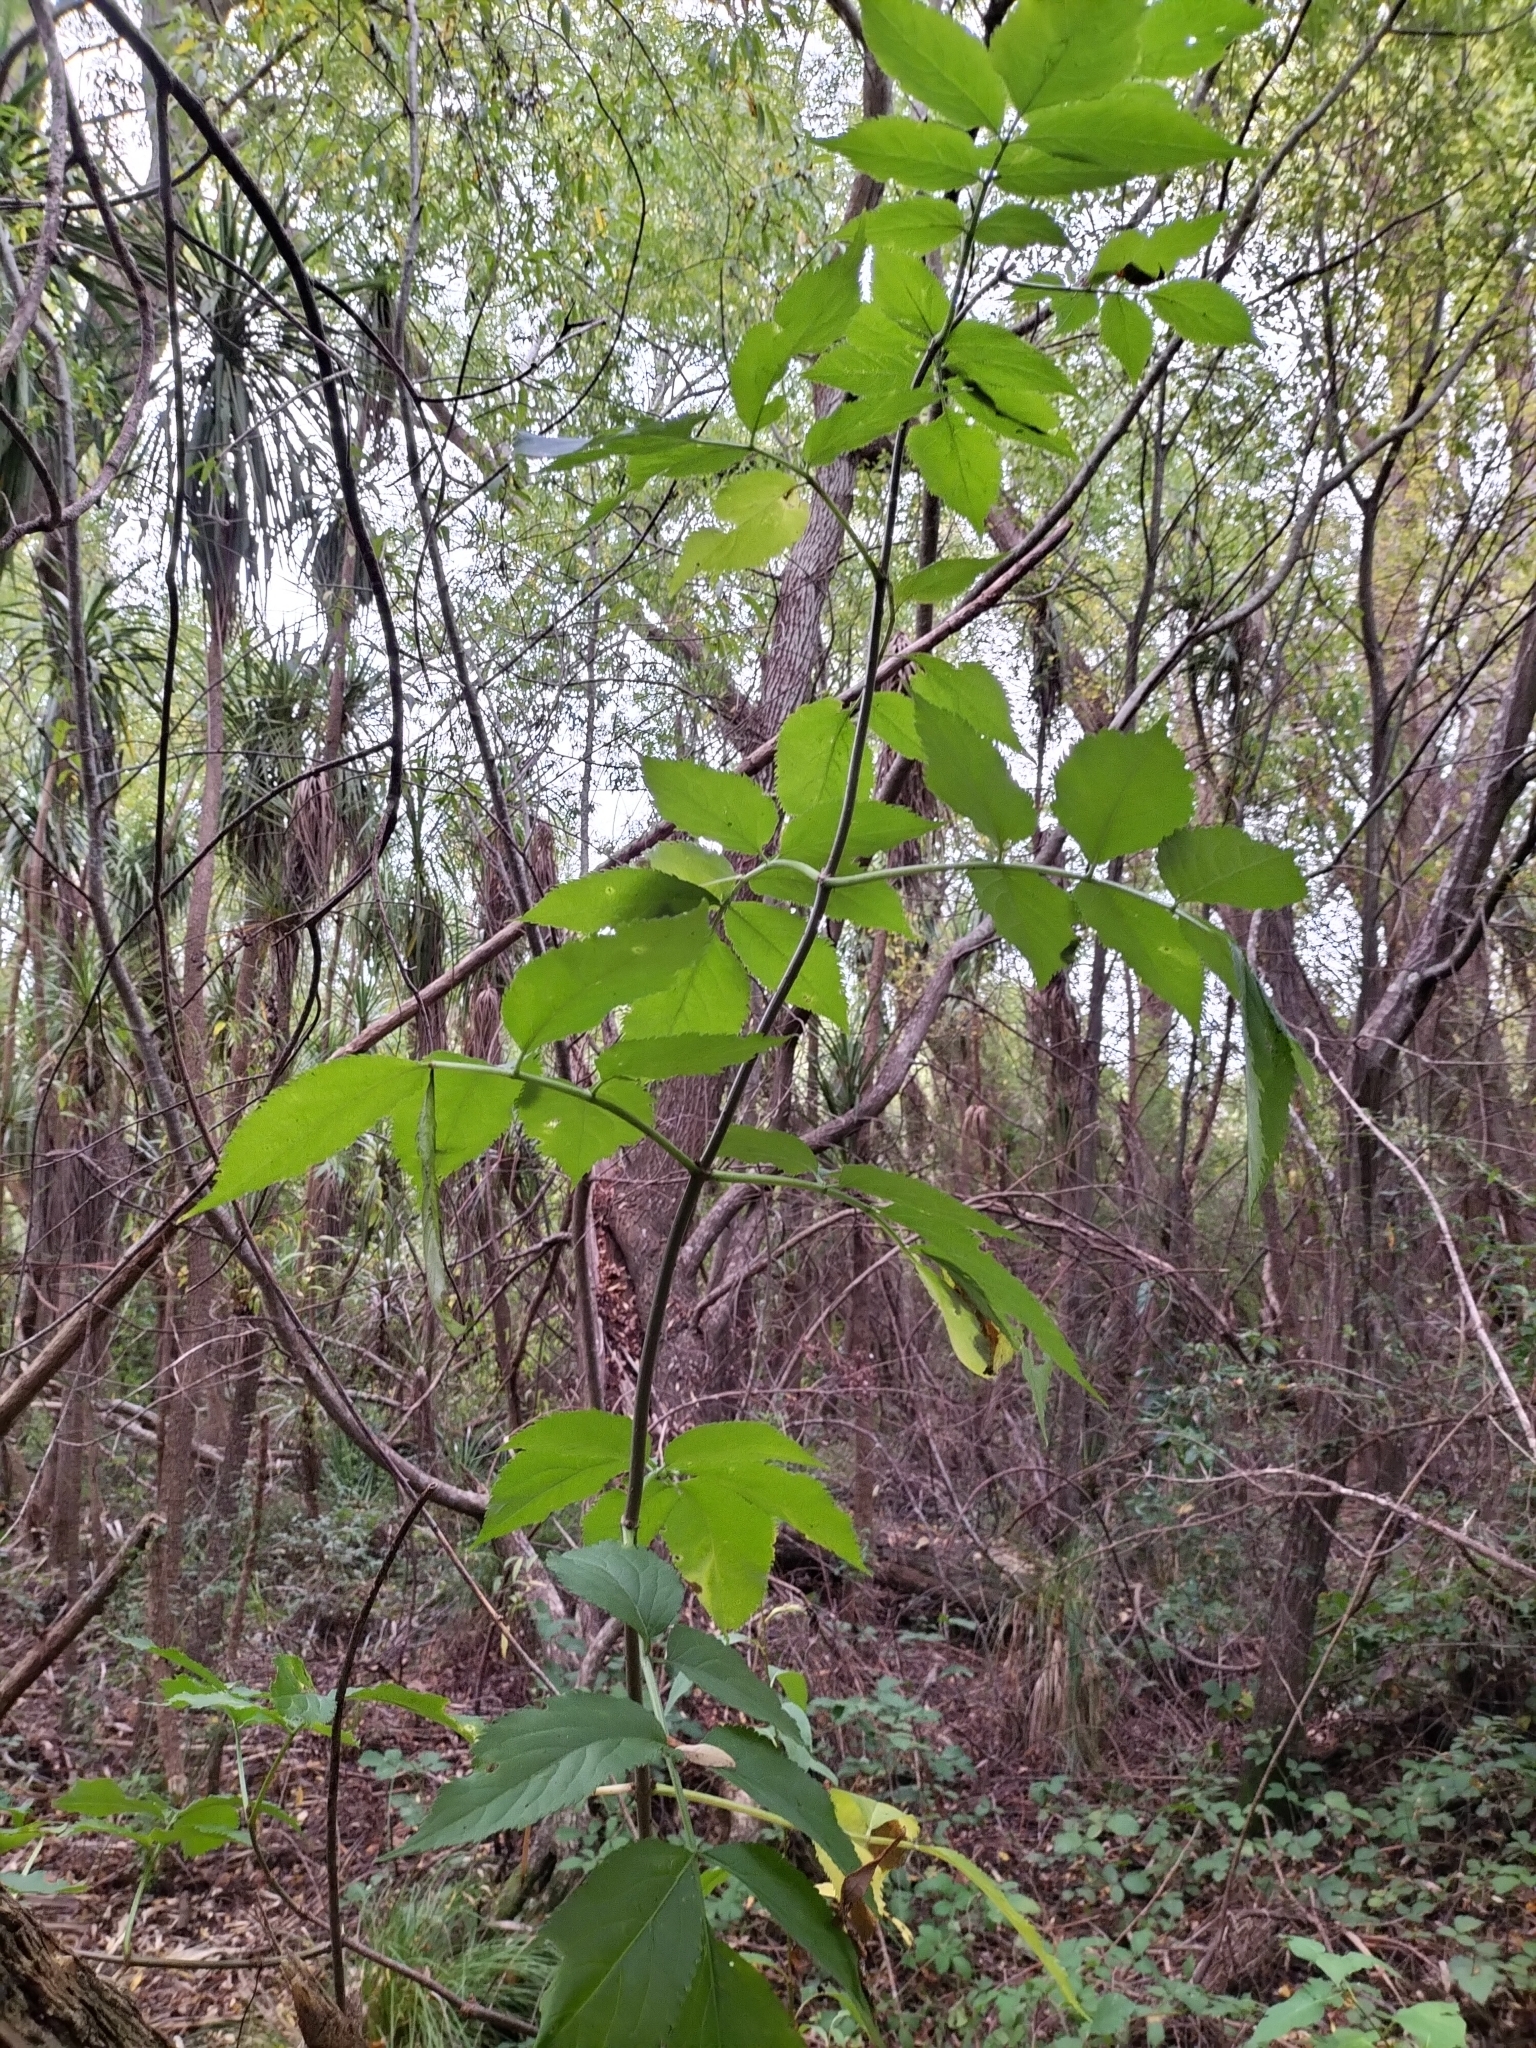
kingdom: Plantae
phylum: Tracheophyta
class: Magnoliopsida
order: Dipsacales
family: Viburnaceae
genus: Sambucus
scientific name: Sambucus nigra
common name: Elder
